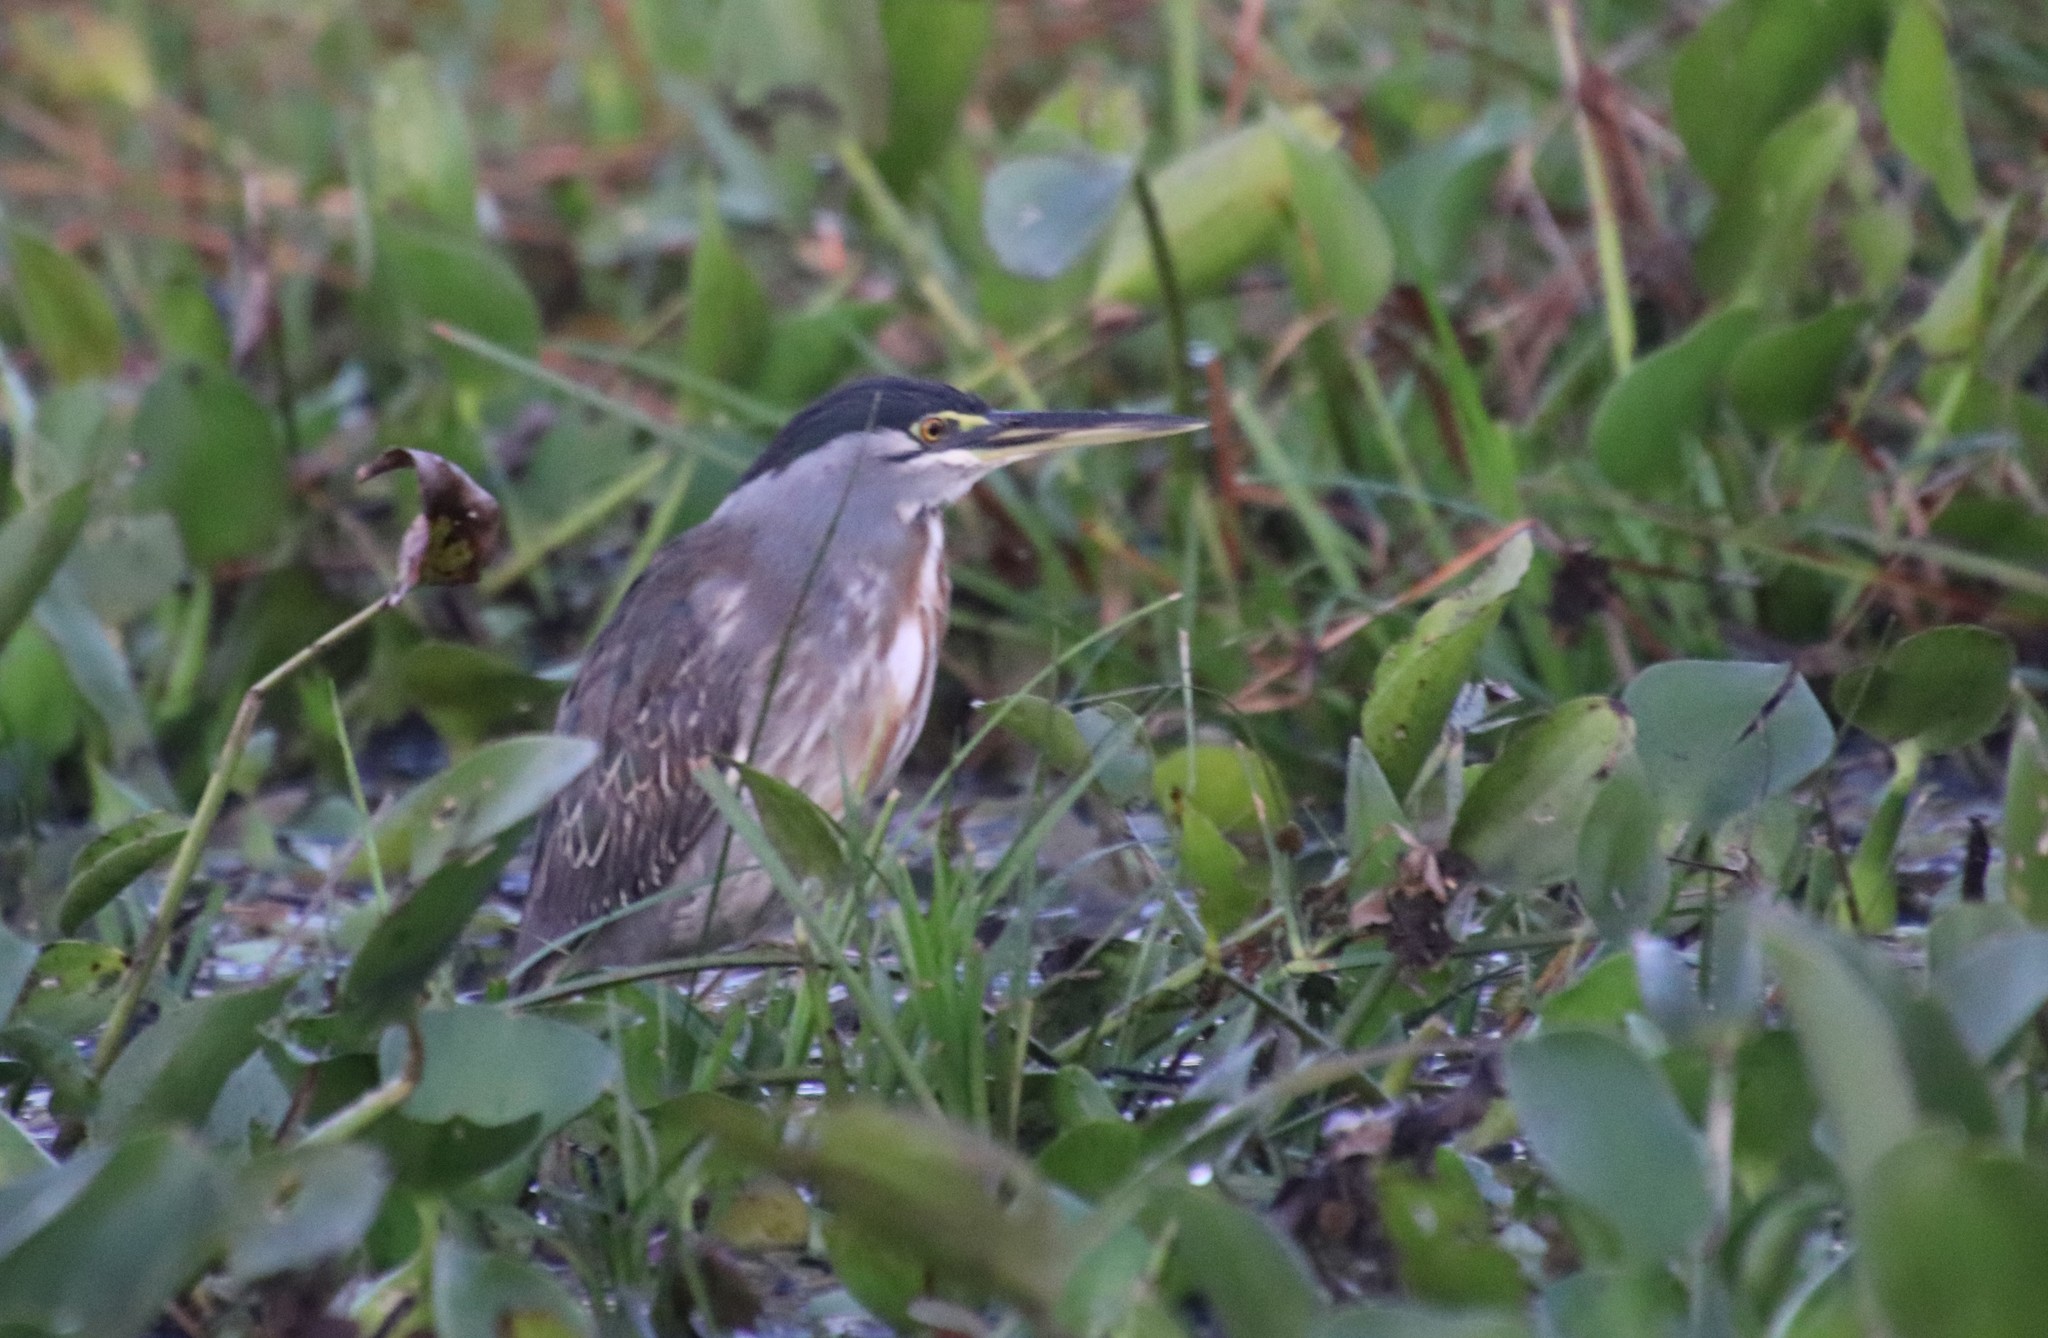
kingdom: Animalia
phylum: Chordata
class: Aves
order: Pelecaniformes
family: Ardeidae
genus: Butorides
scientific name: Butorides striata
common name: Striated heron
